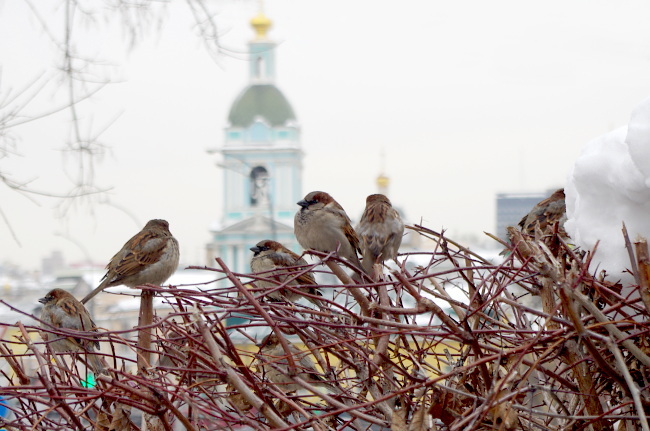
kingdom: Animalia
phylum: Chordata
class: Aves
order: Passeriformes
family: Passeridae
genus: Passer
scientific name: Passer domesticus
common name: House sparrow
